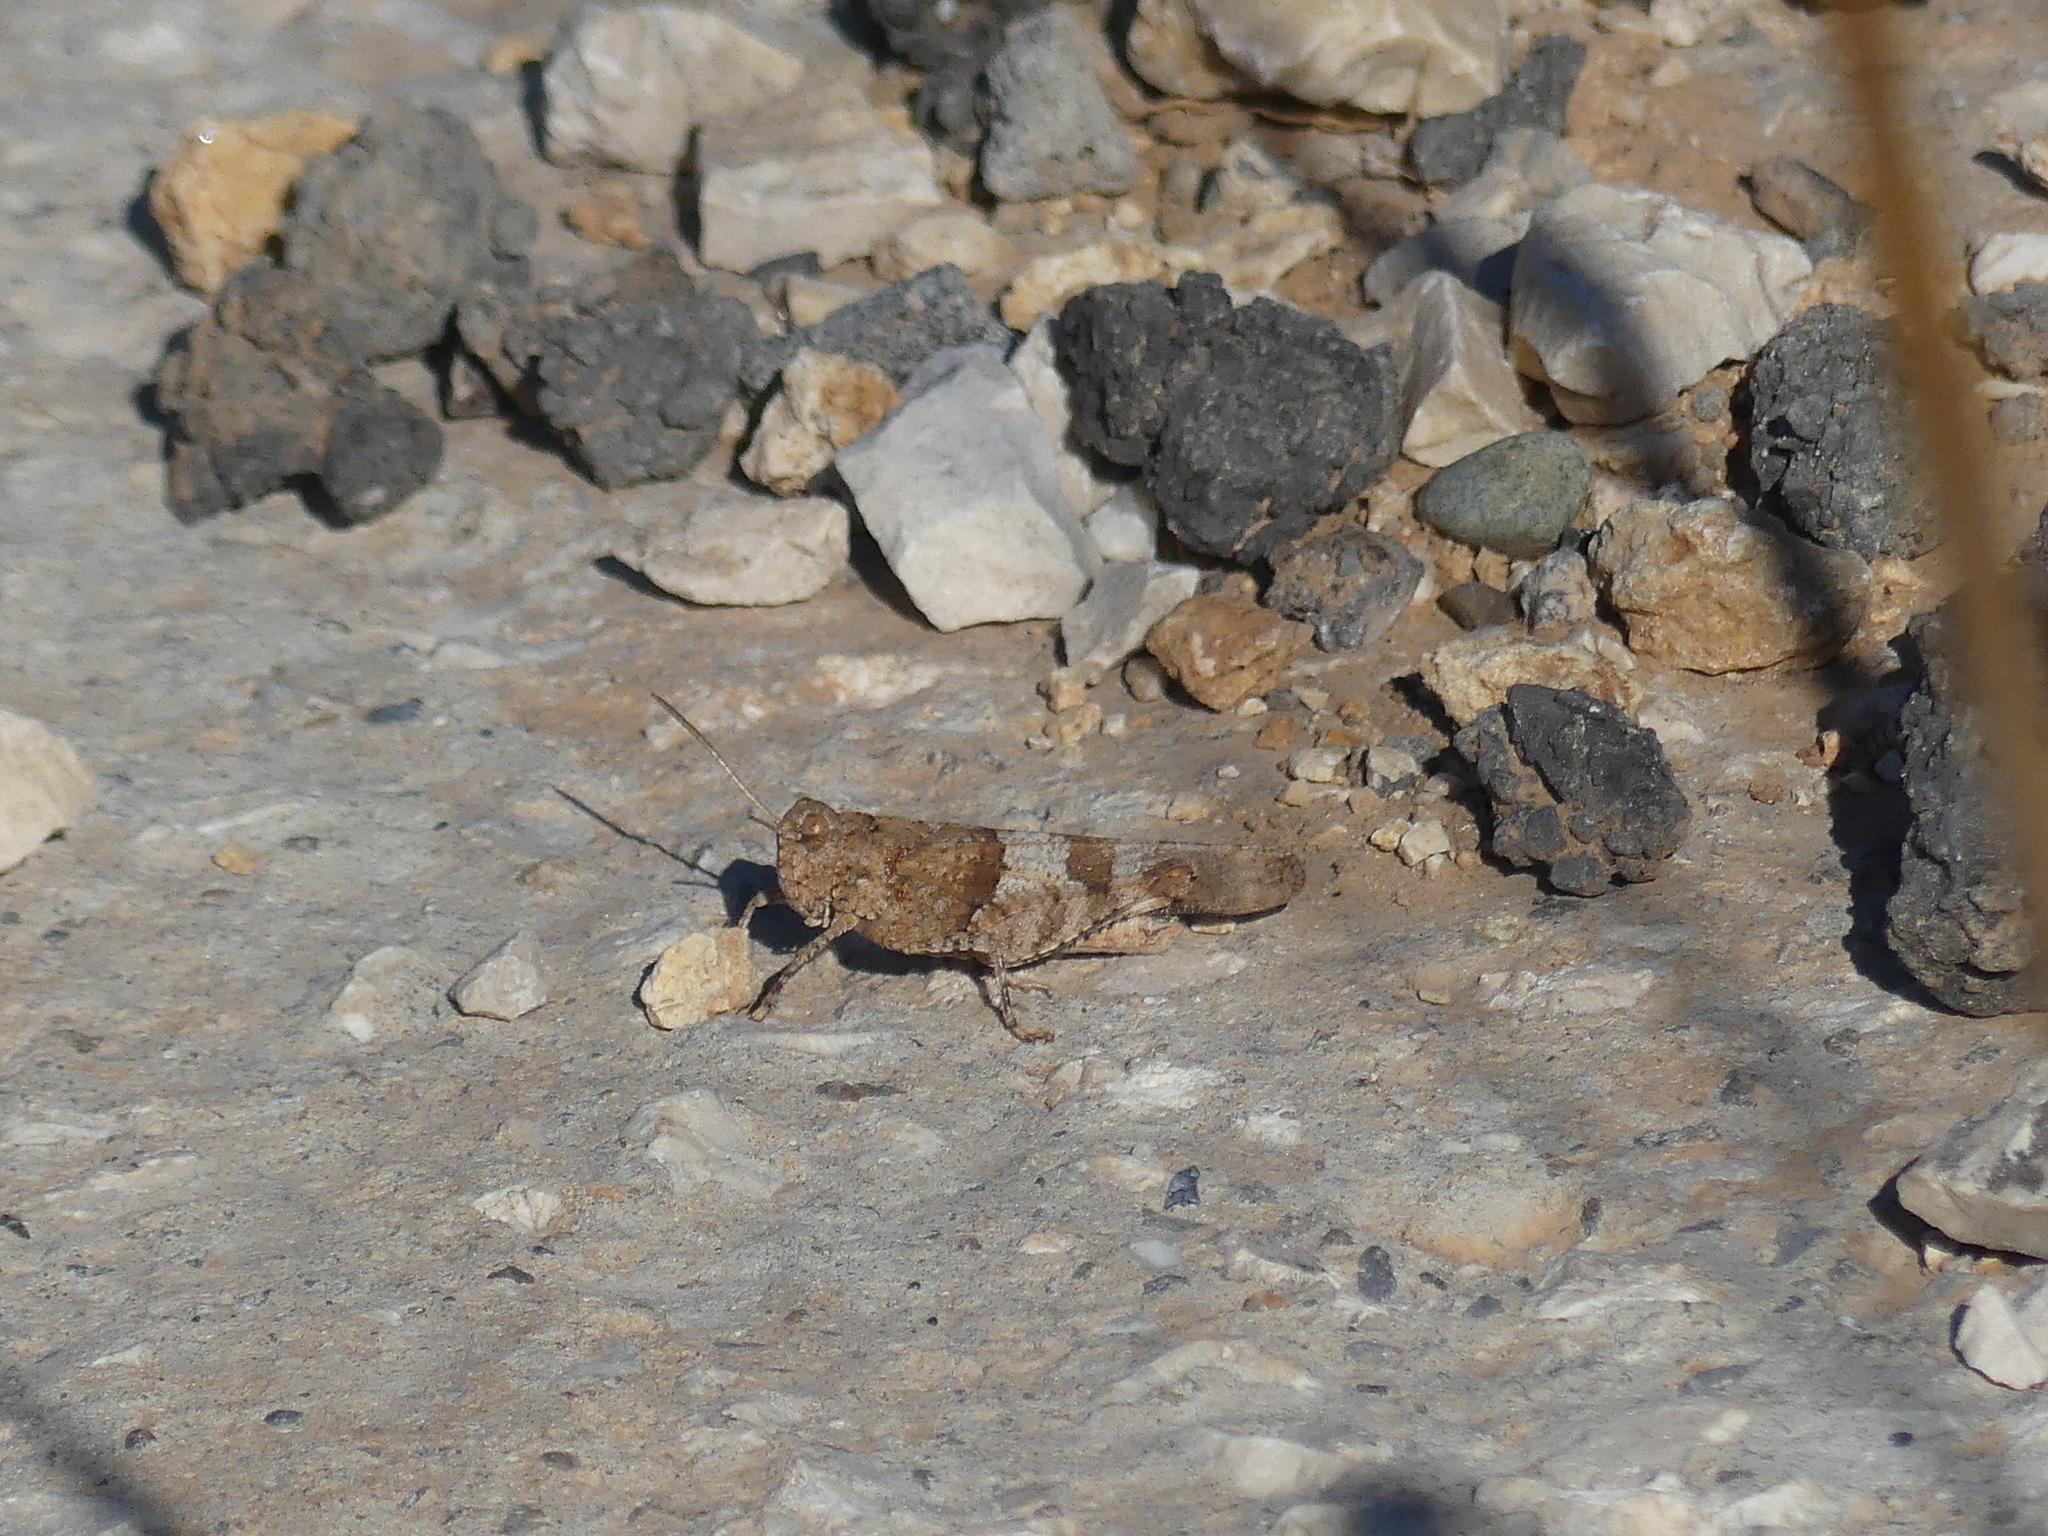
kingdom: Animalia
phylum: Arthropoda
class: Insecta
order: Orthoptera
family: Acrididae
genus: Oedipoda
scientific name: Oedipoda caerulescens
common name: Blue-winged grasshopper
